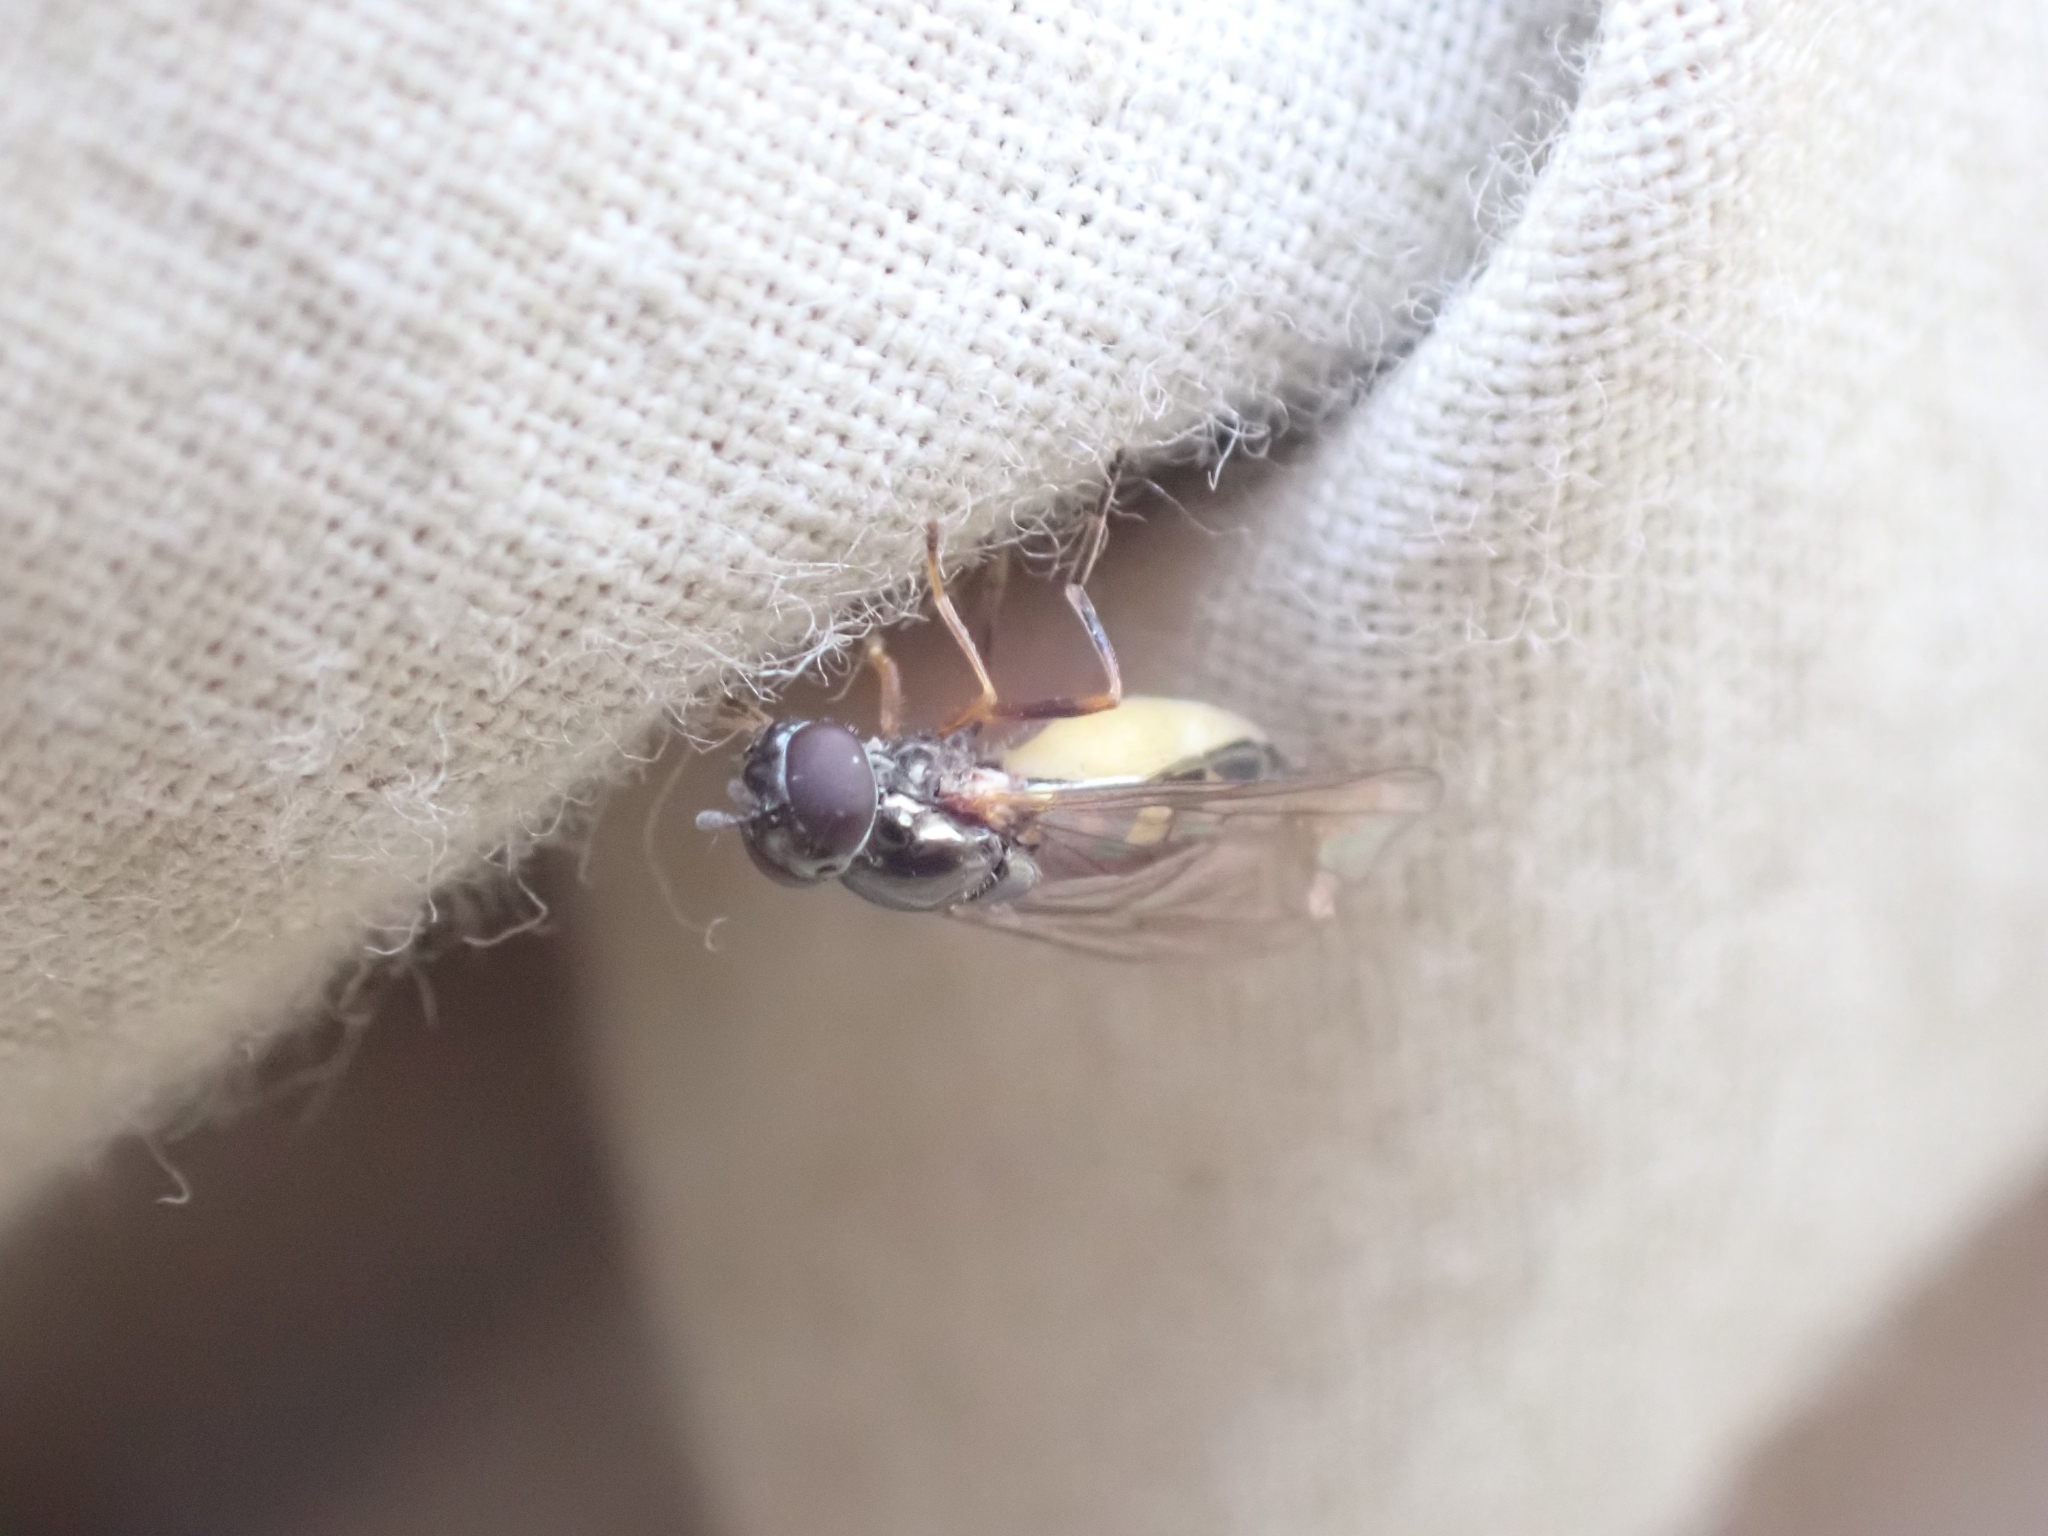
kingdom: Animalia
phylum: Arthropoda
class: Insecta
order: Diptera
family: Syrphidae
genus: Melanostoma
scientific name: Melanostoma mellina
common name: Hover fly
